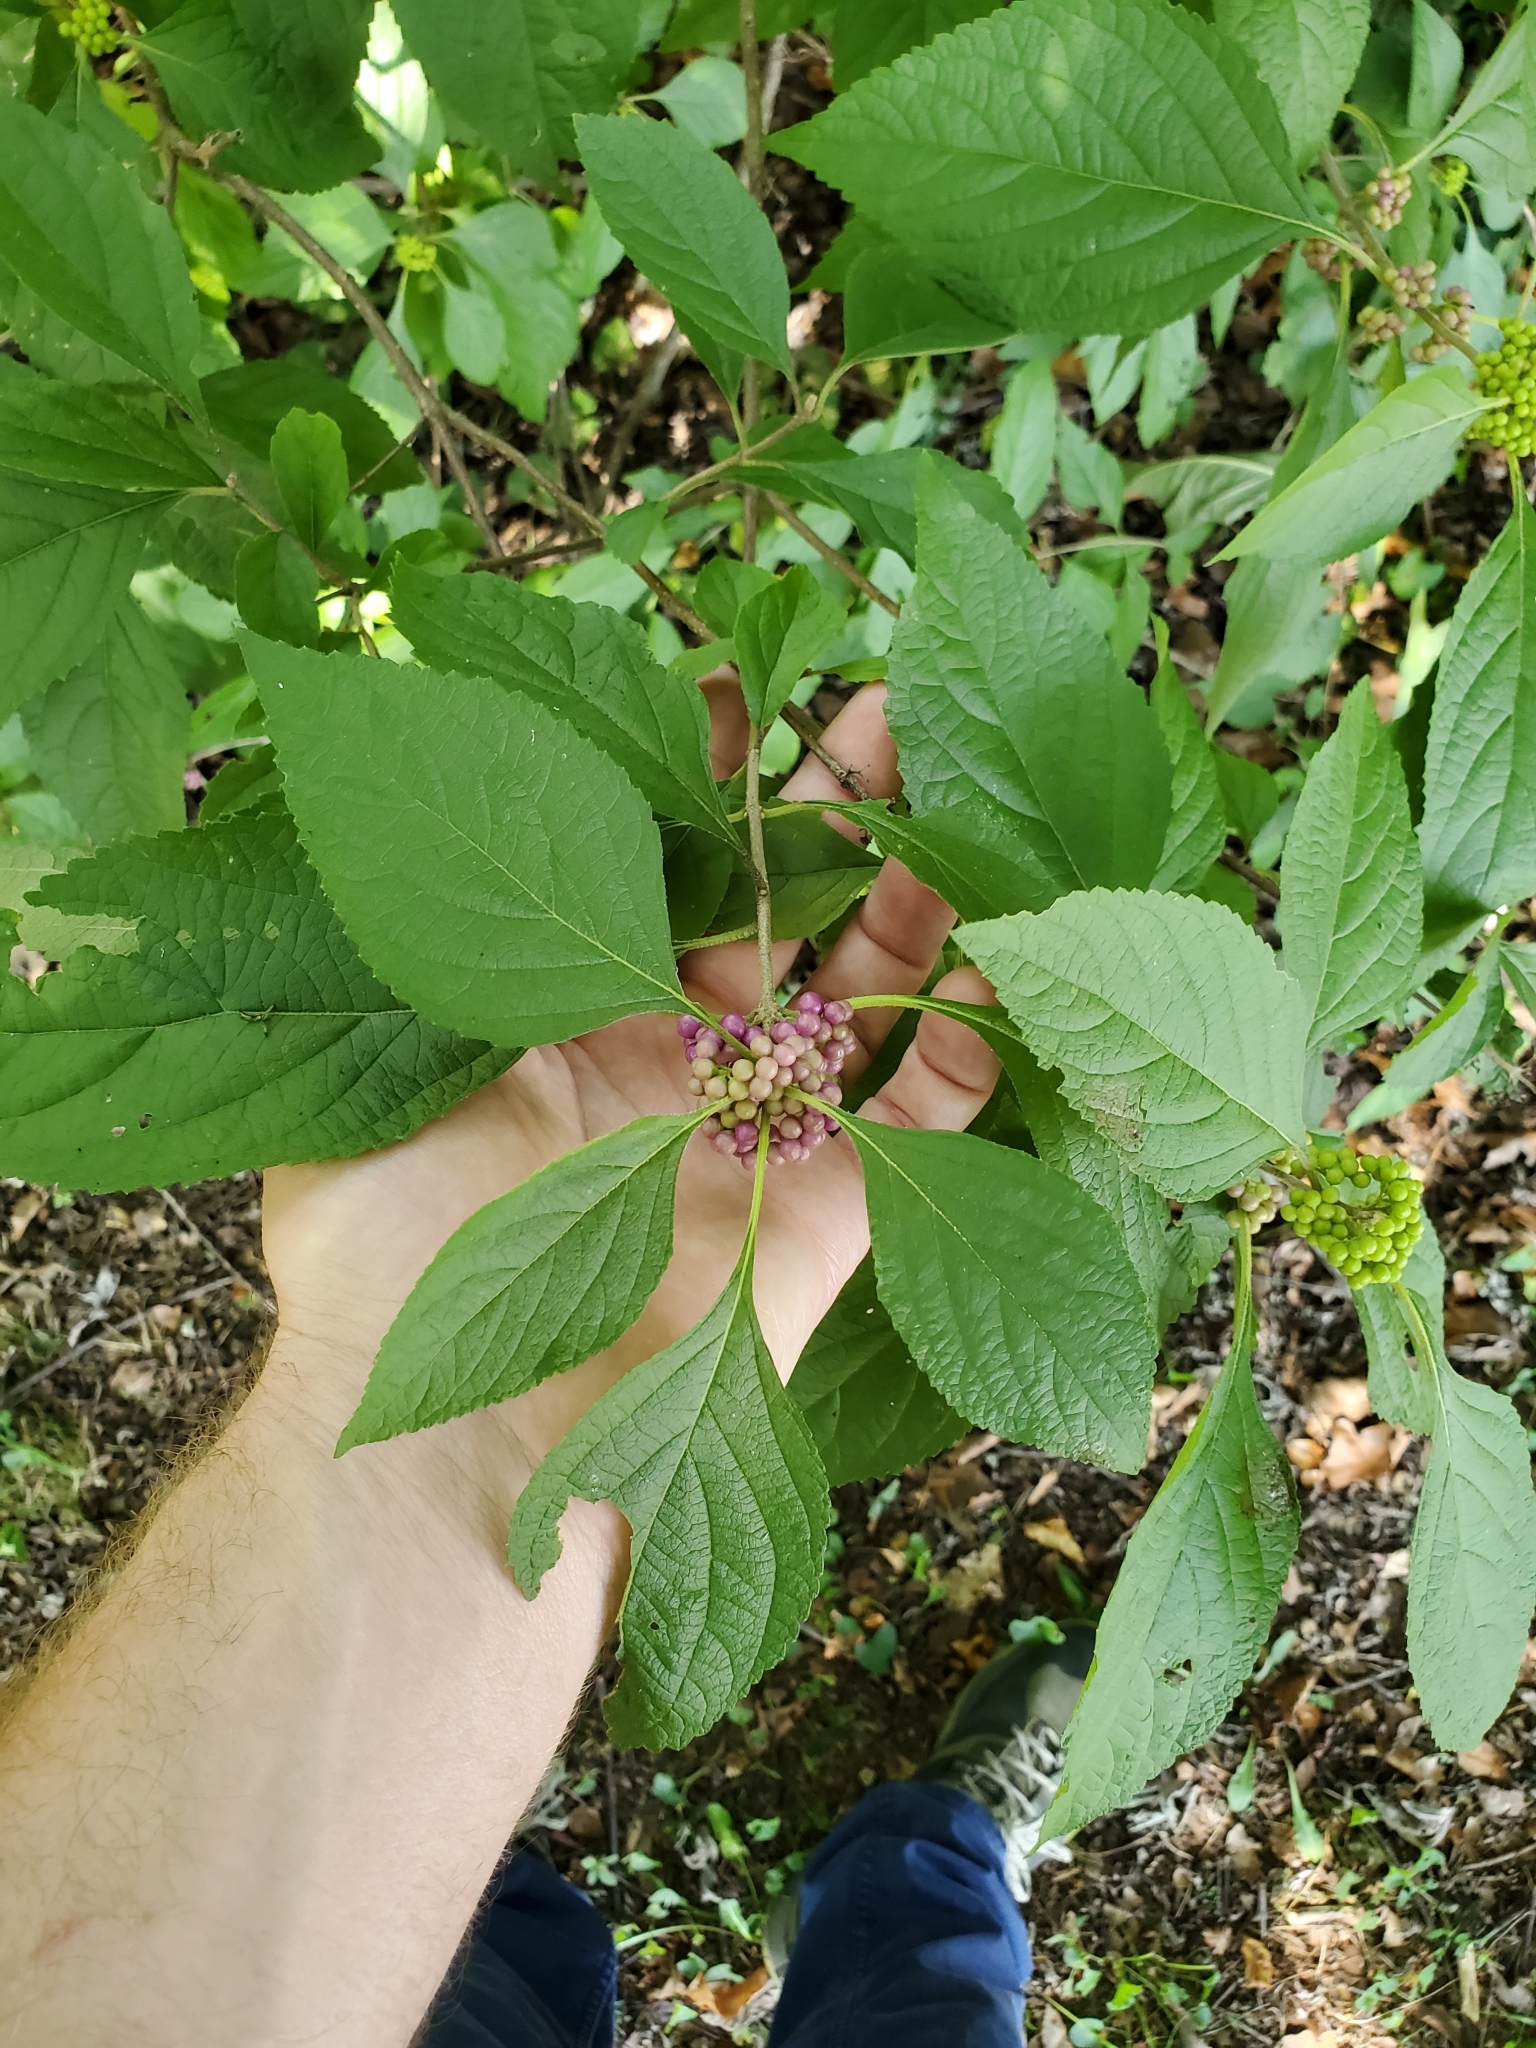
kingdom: Plantae
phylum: Tracheophyta
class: Magnoliopsida
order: Lamiales
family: Lamiaceae
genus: Callicarpa
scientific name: Callicarpa americana
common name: American beautyberry
